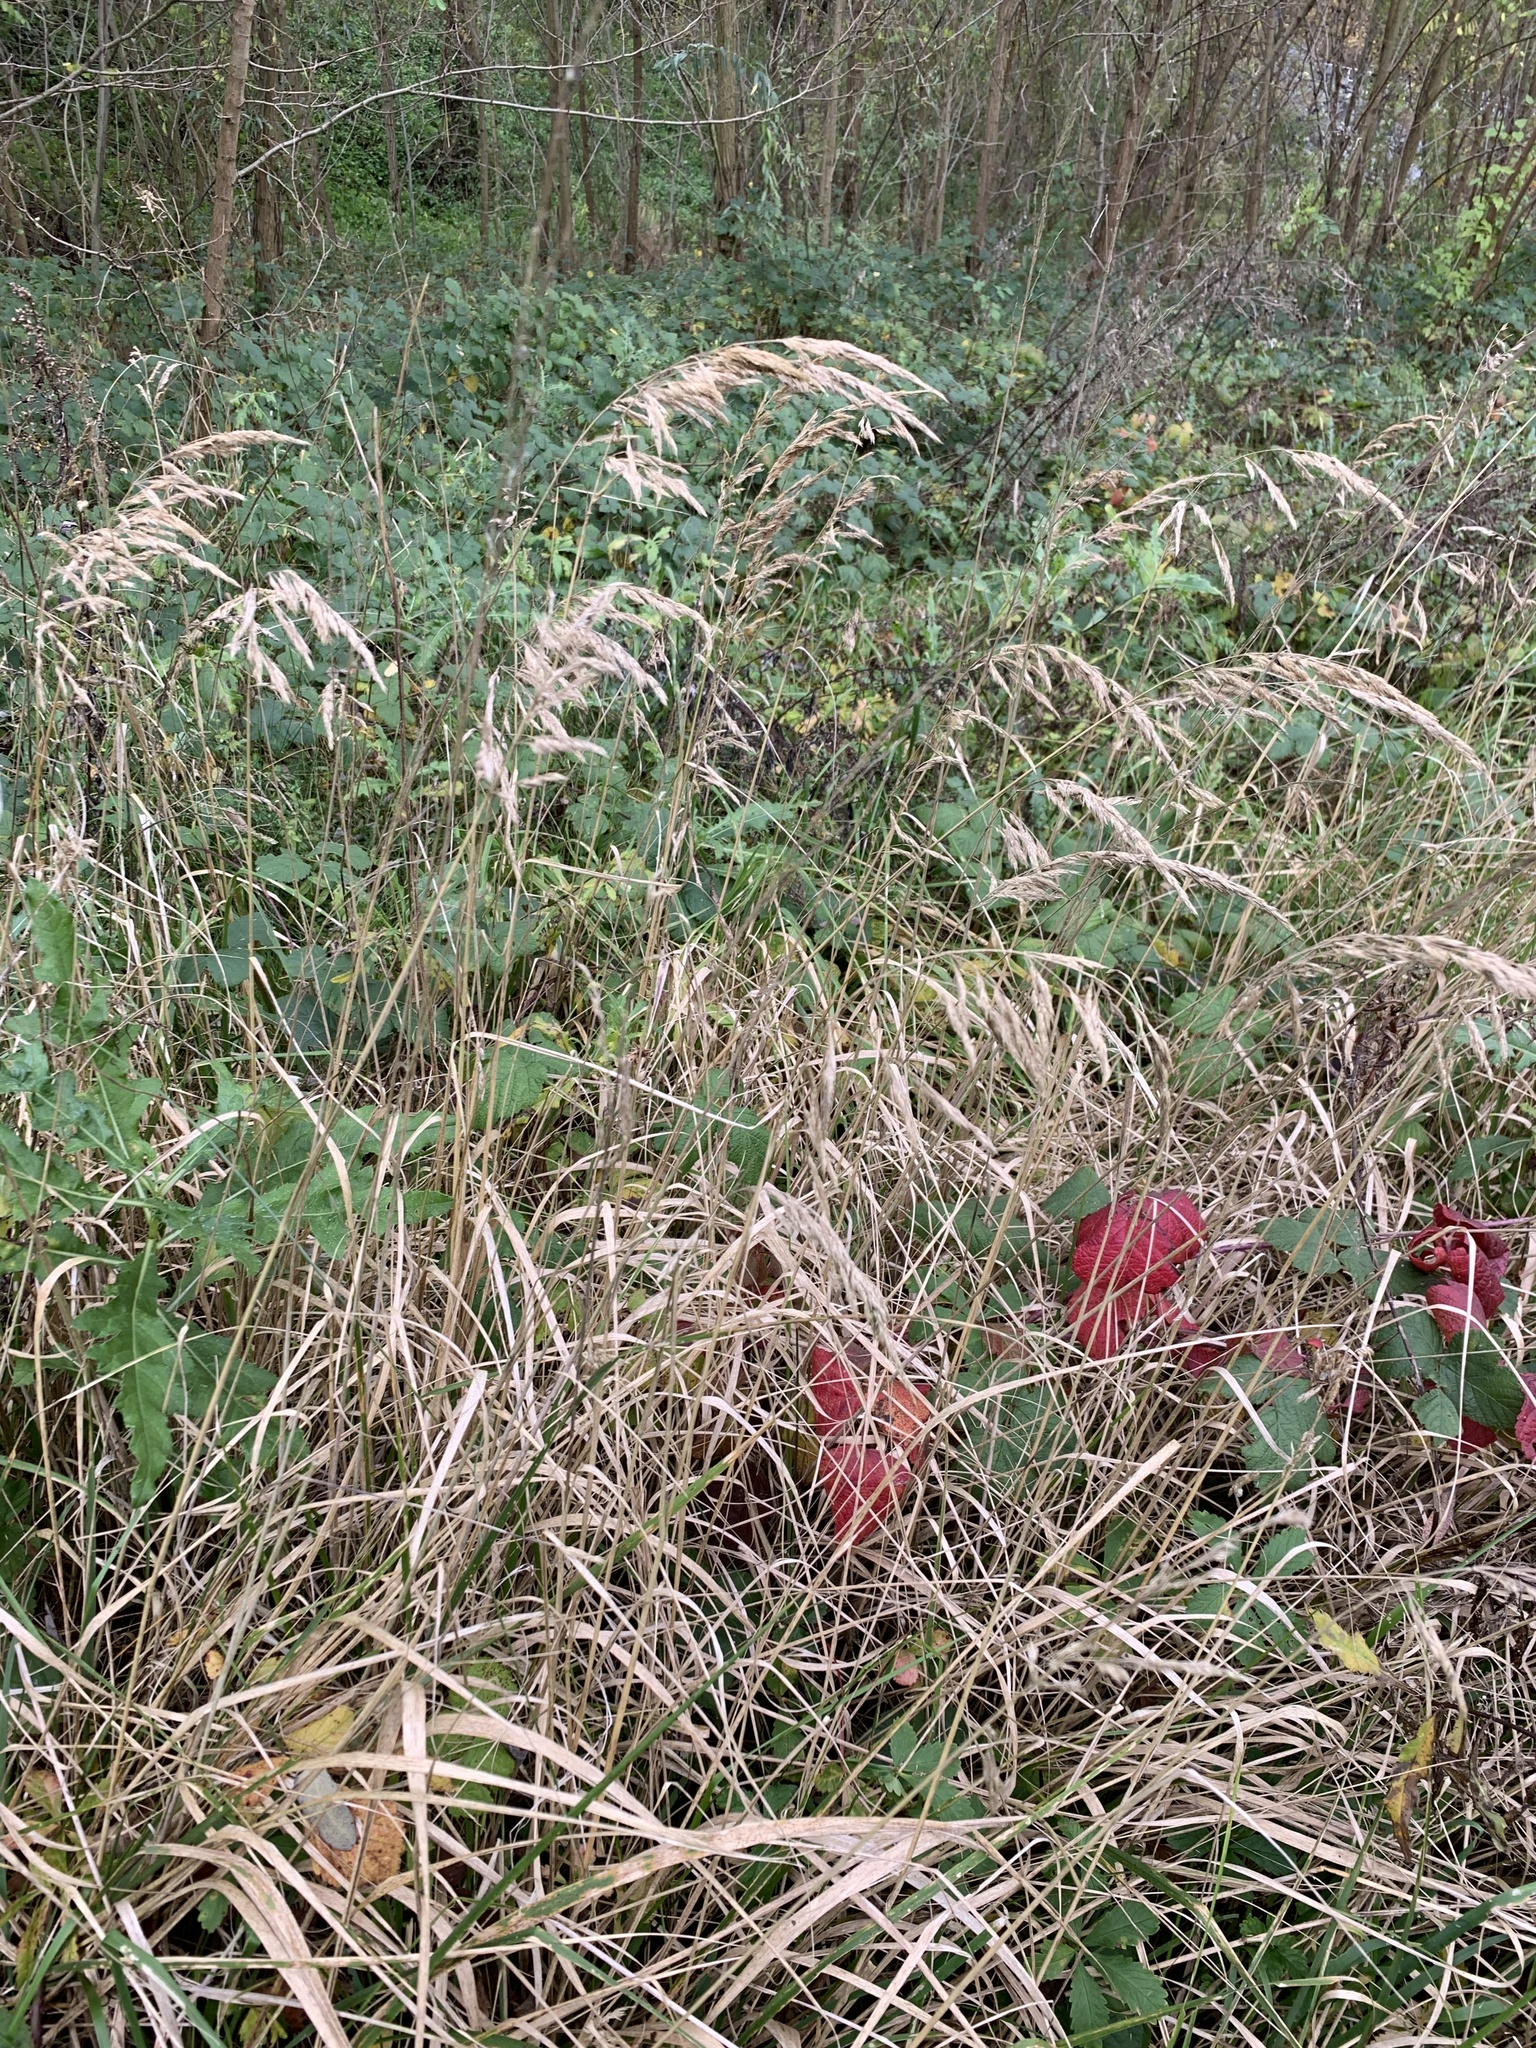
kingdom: Plantae
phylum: Tracheophyta
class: Liliopsida
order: Poales
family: Poaceae
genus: Calamagrostis
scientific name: Calamagrostis epigejos
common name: Wood small-reed
